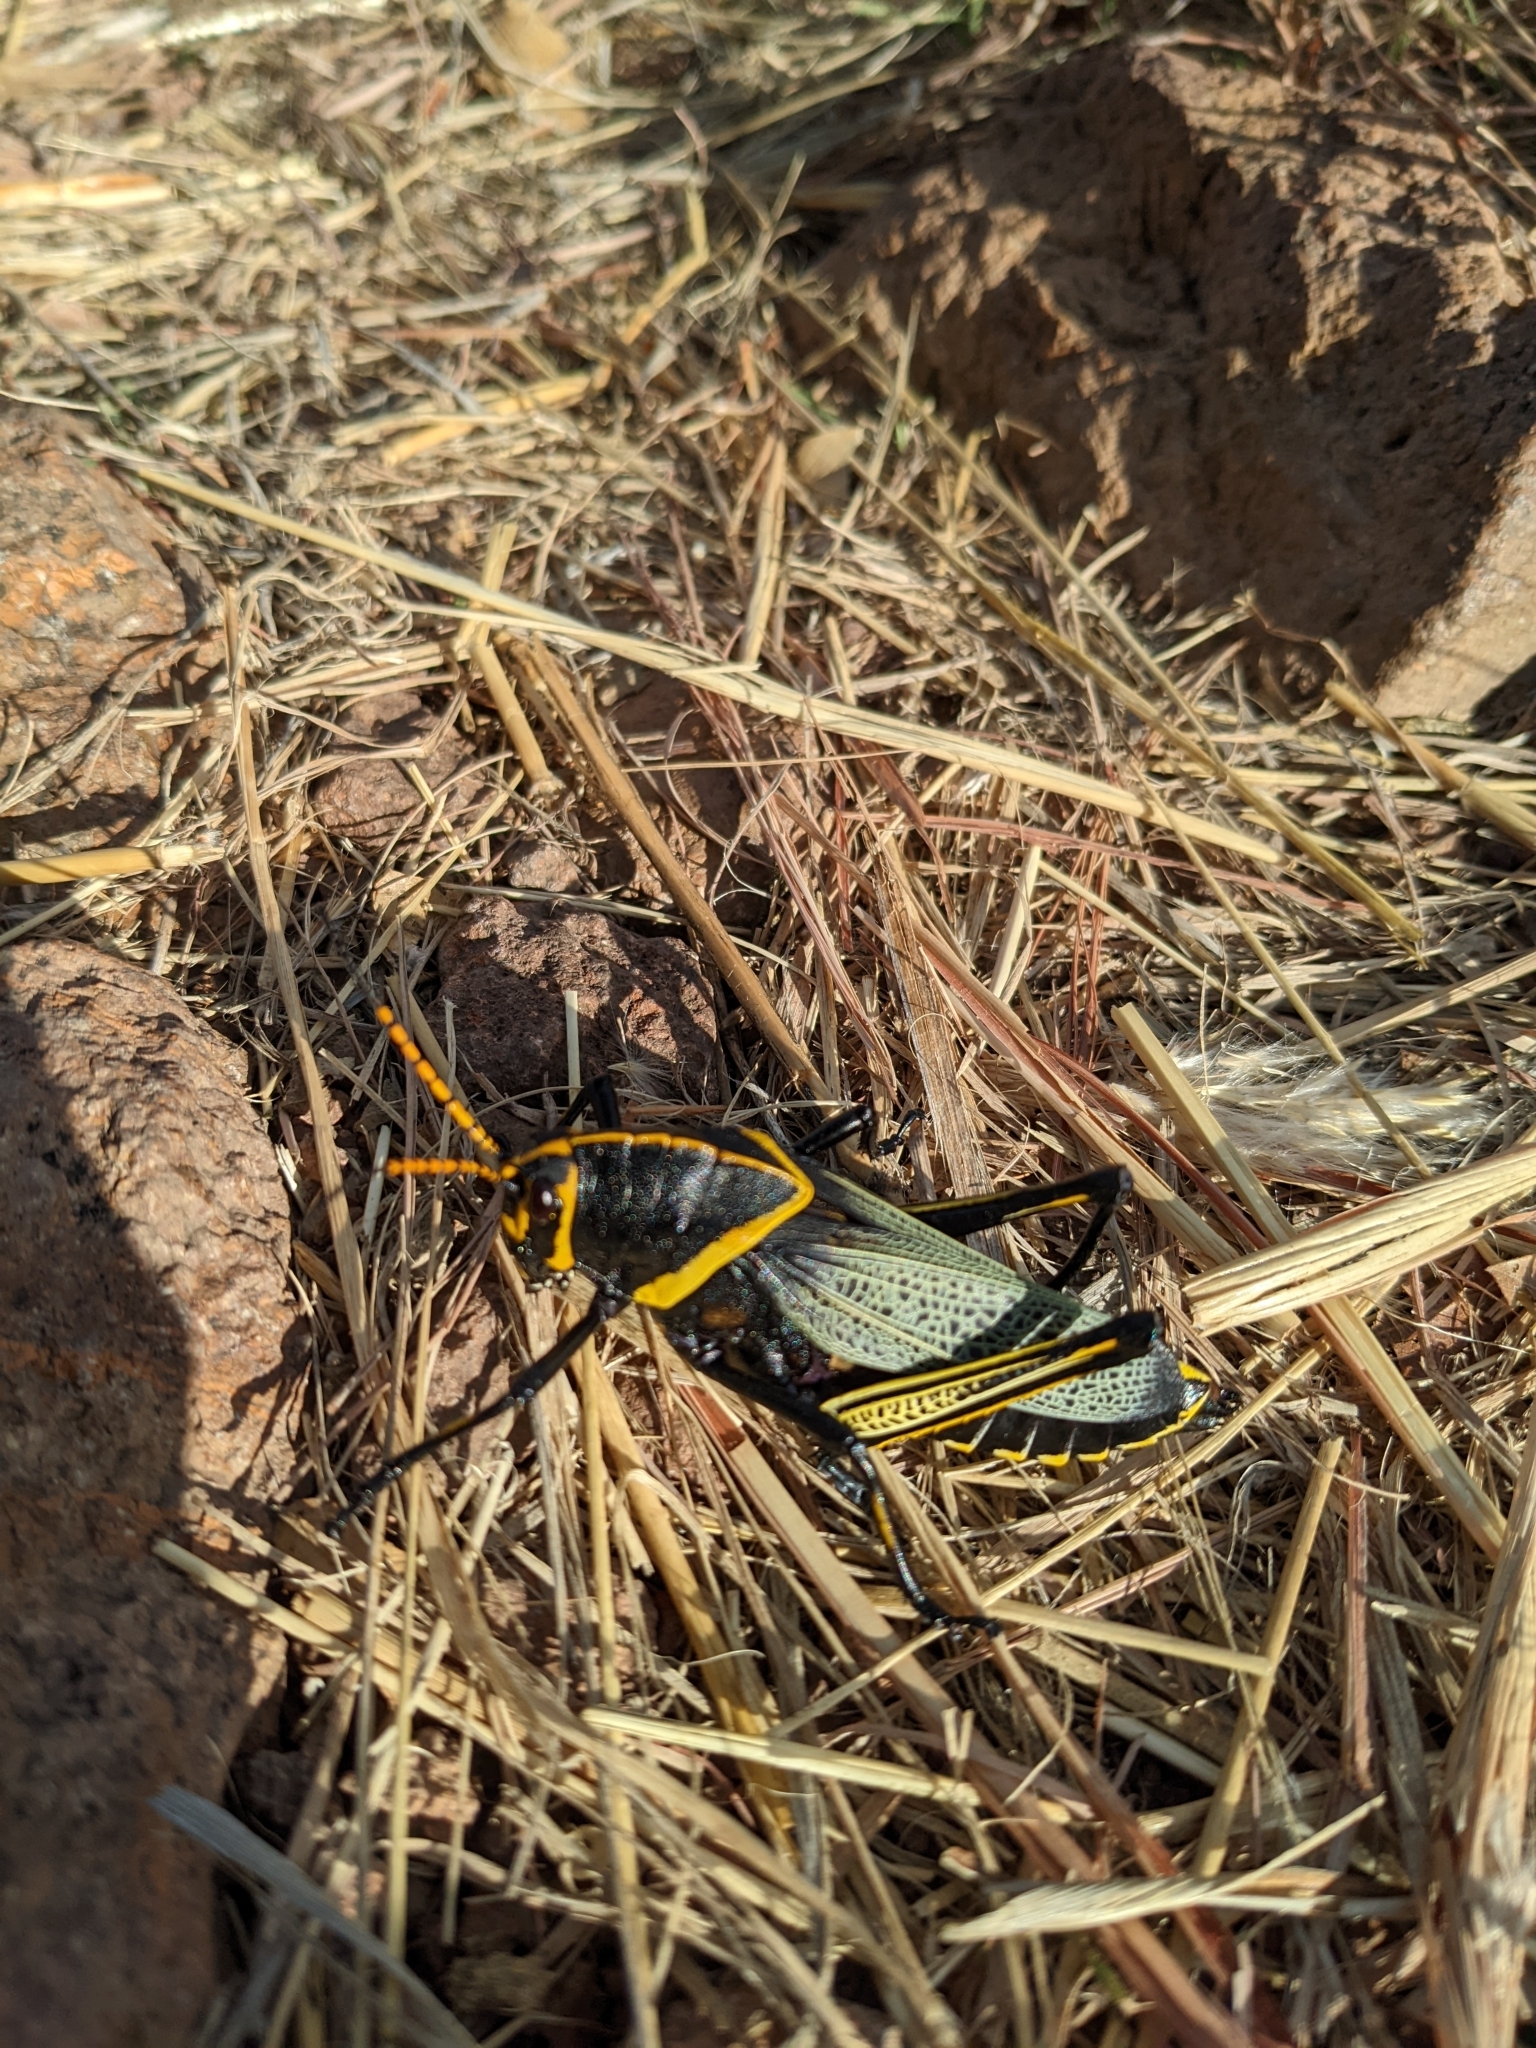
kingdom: Animalia
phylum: Arthropoda
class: Insecta
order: Orthoptera
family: Romaleidae
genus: Romalea
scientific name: Romalea
